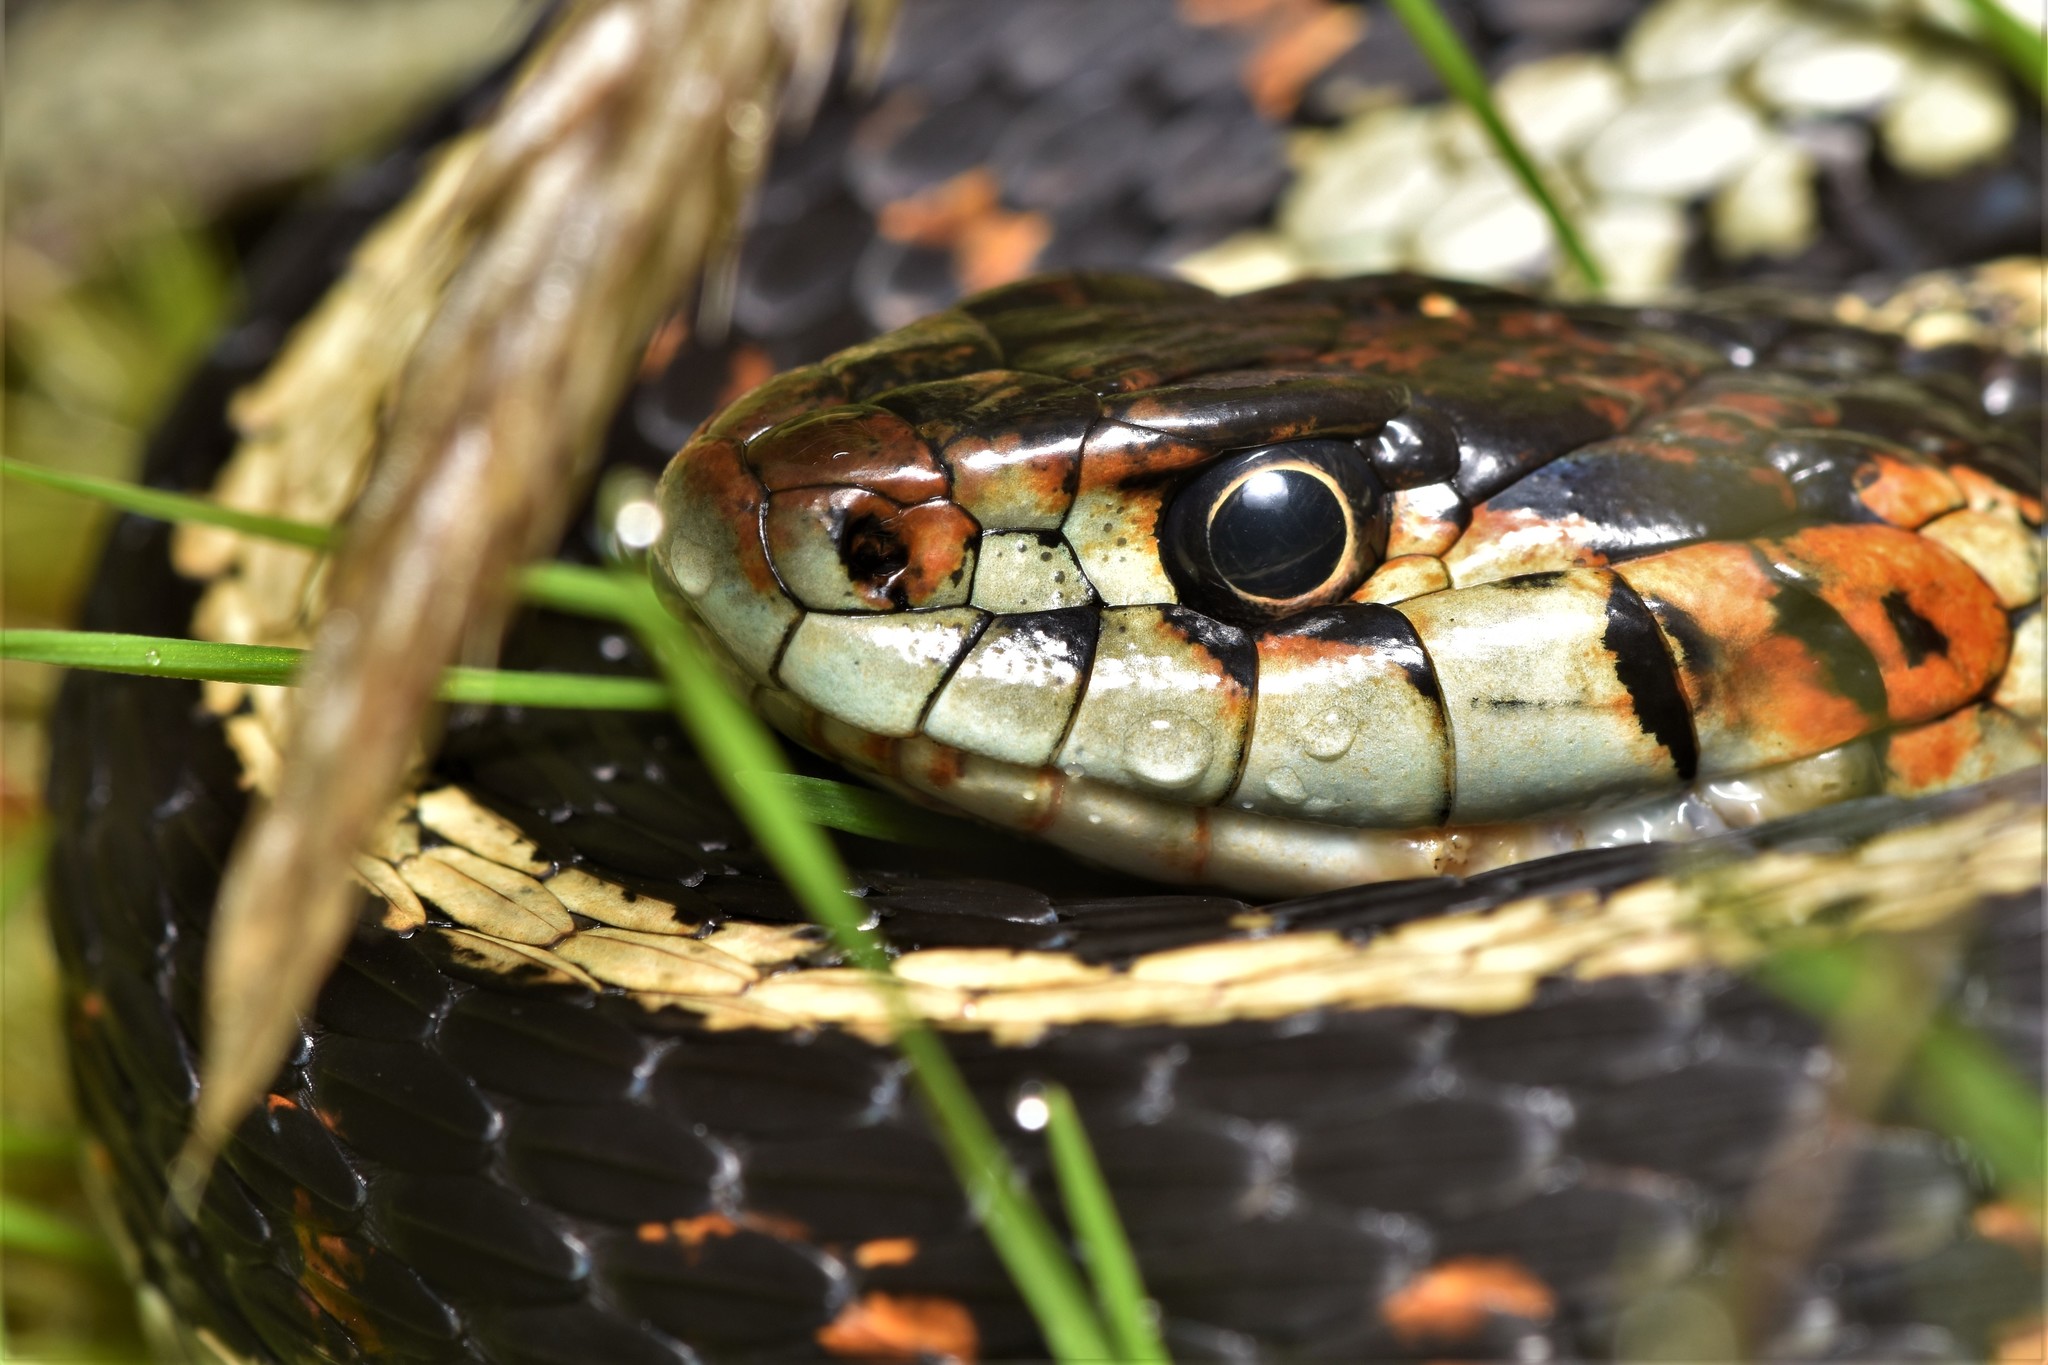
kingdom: Animalia
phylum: Chordata
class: Squamata
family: Colubridae
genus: Thamnophis
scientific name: Thamnophis sirtalis
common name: Common garter snake
